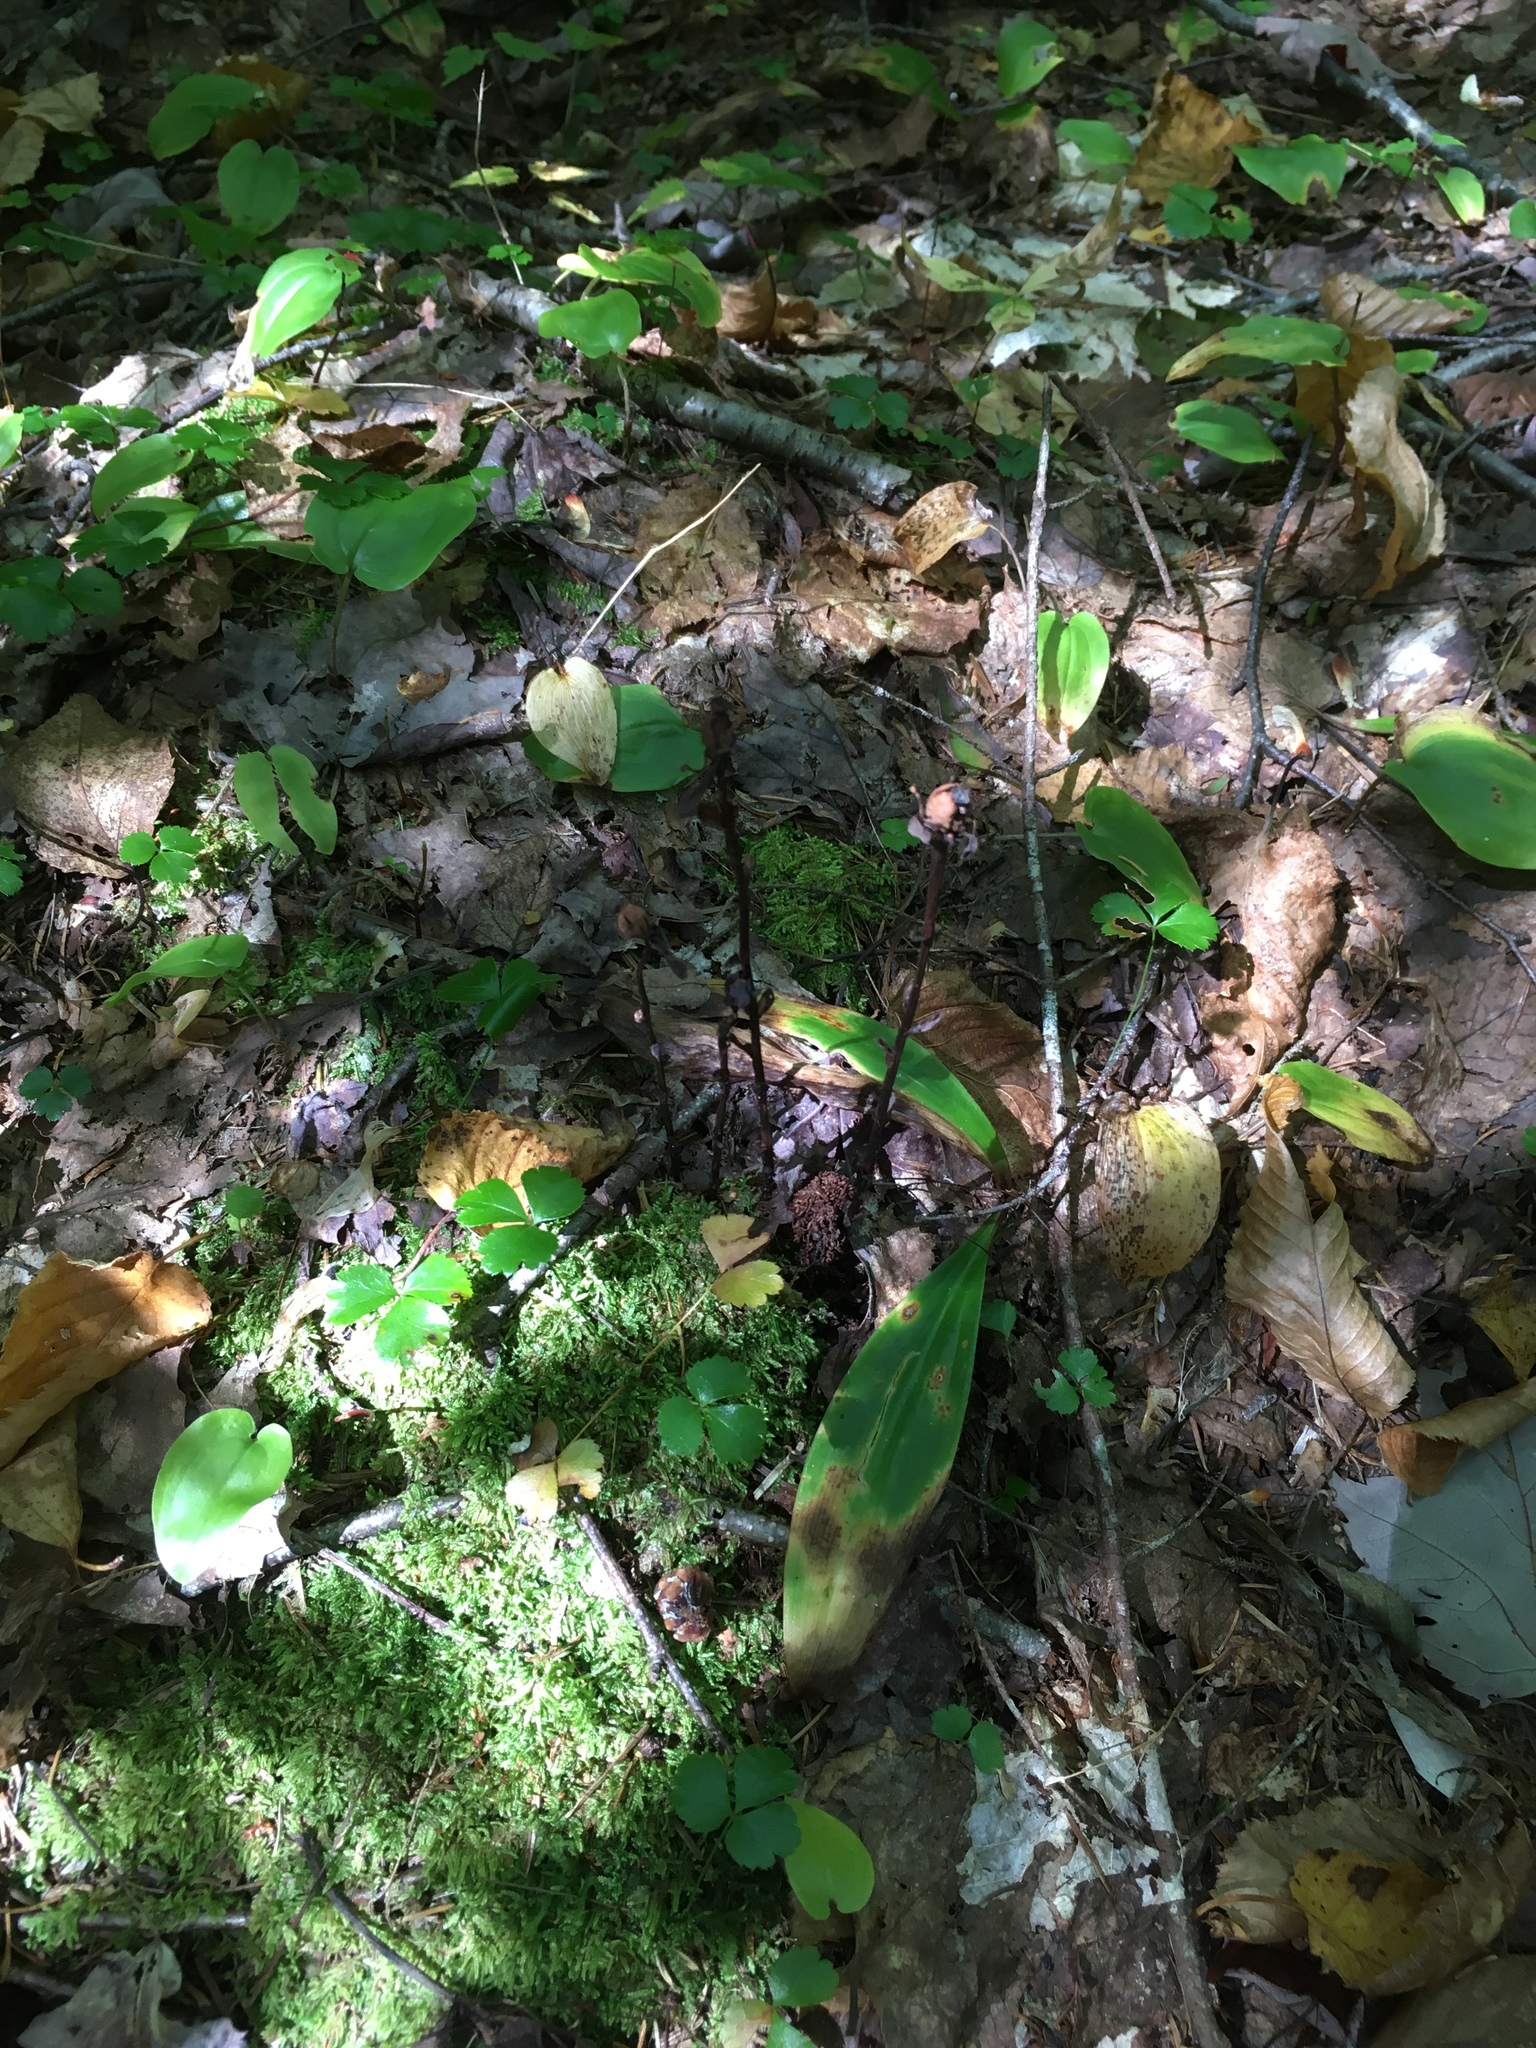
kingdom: Plantae
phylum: Tracheophyta
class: Magnoliopsida
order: Ericales
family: Ericaceae
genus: Monotropa
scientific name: Monotropa uniflora
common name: Convulsion root
